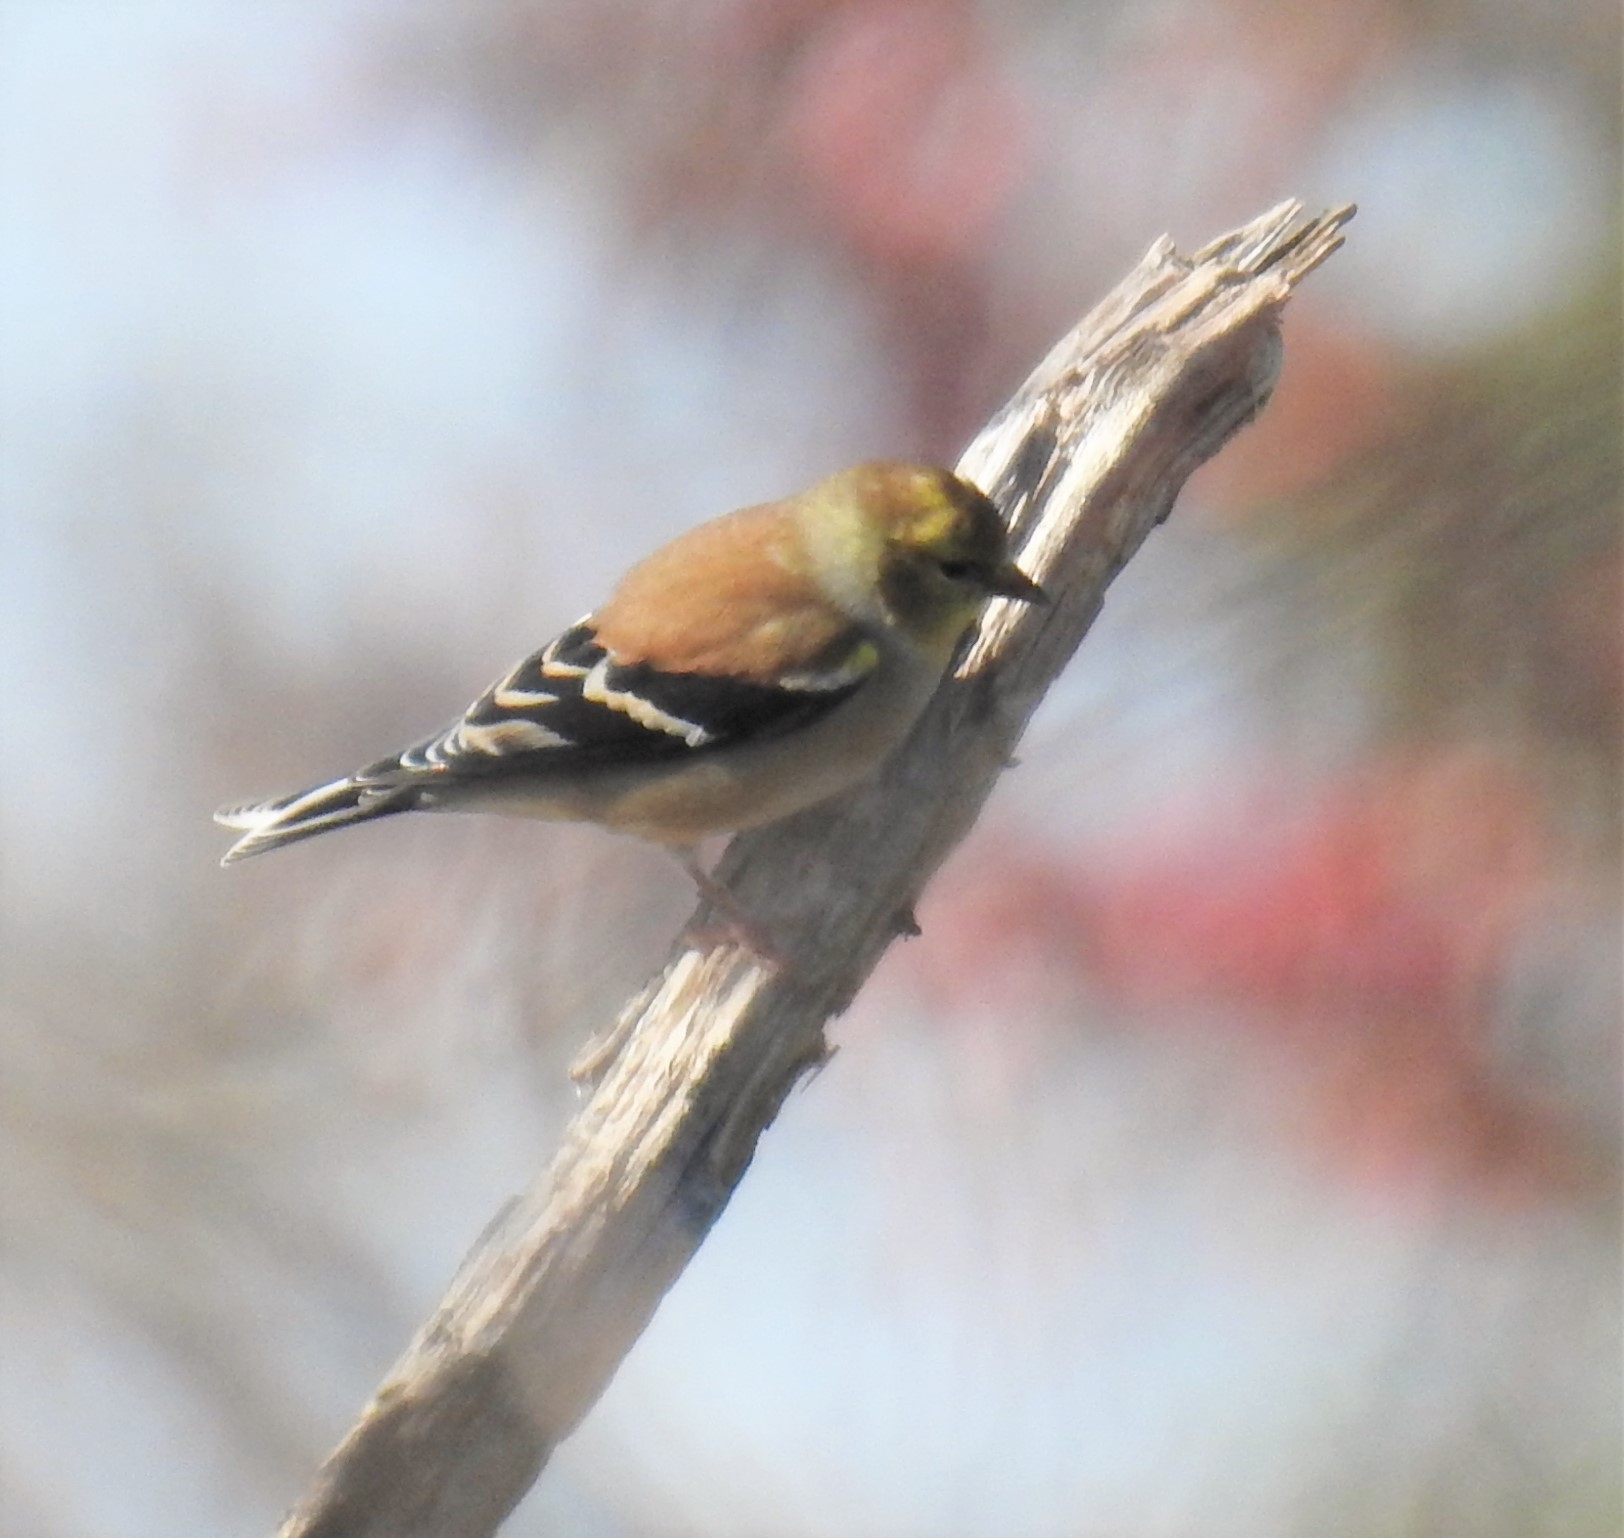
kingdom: Animalia
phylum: Chordata
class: Aves
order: Passeriformes
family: Fringillidae
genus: Spinus
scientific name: Spinus tristis
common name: American goldfinch
